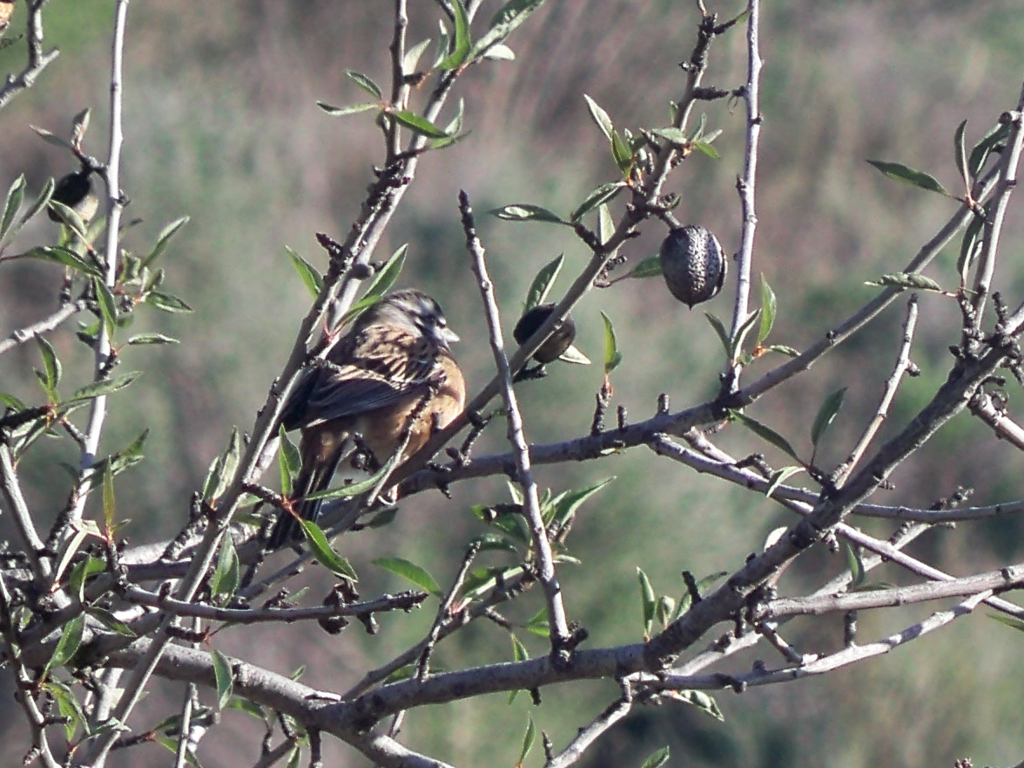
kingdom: Plantae
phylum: Tracheophyta
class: Magnoliopsida
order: Rosales
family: Rosaceae
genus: Prunus
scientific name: Prunus amygdalus
